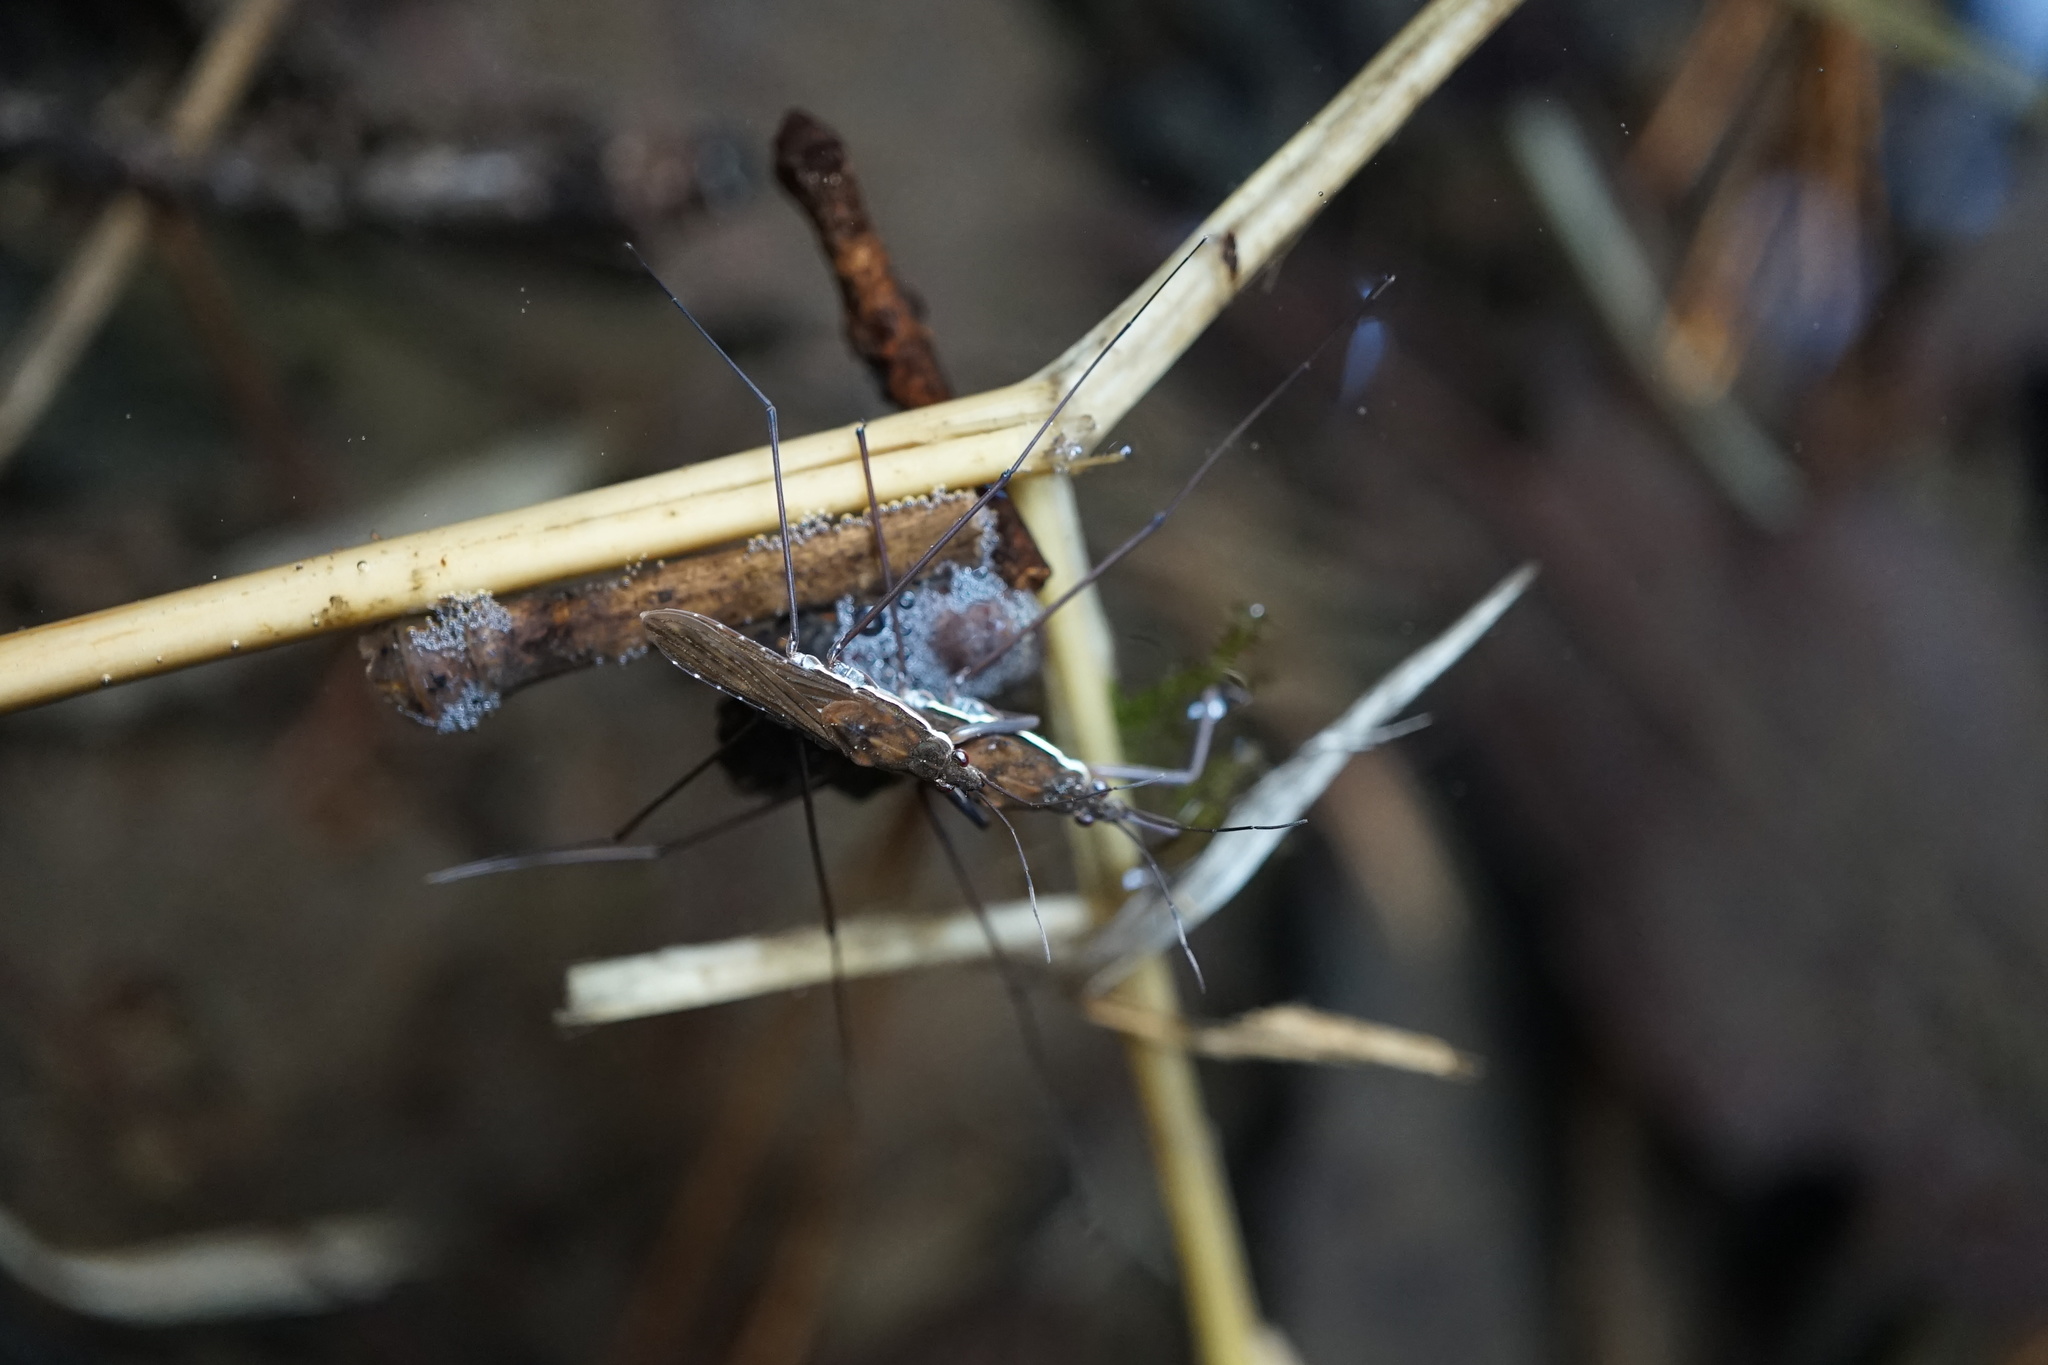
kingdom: Animalia
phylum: Arthropoda
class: Insecta
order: Hemiptera
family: Gerridae
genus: Gerris
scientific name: Gerris gracilicornis
